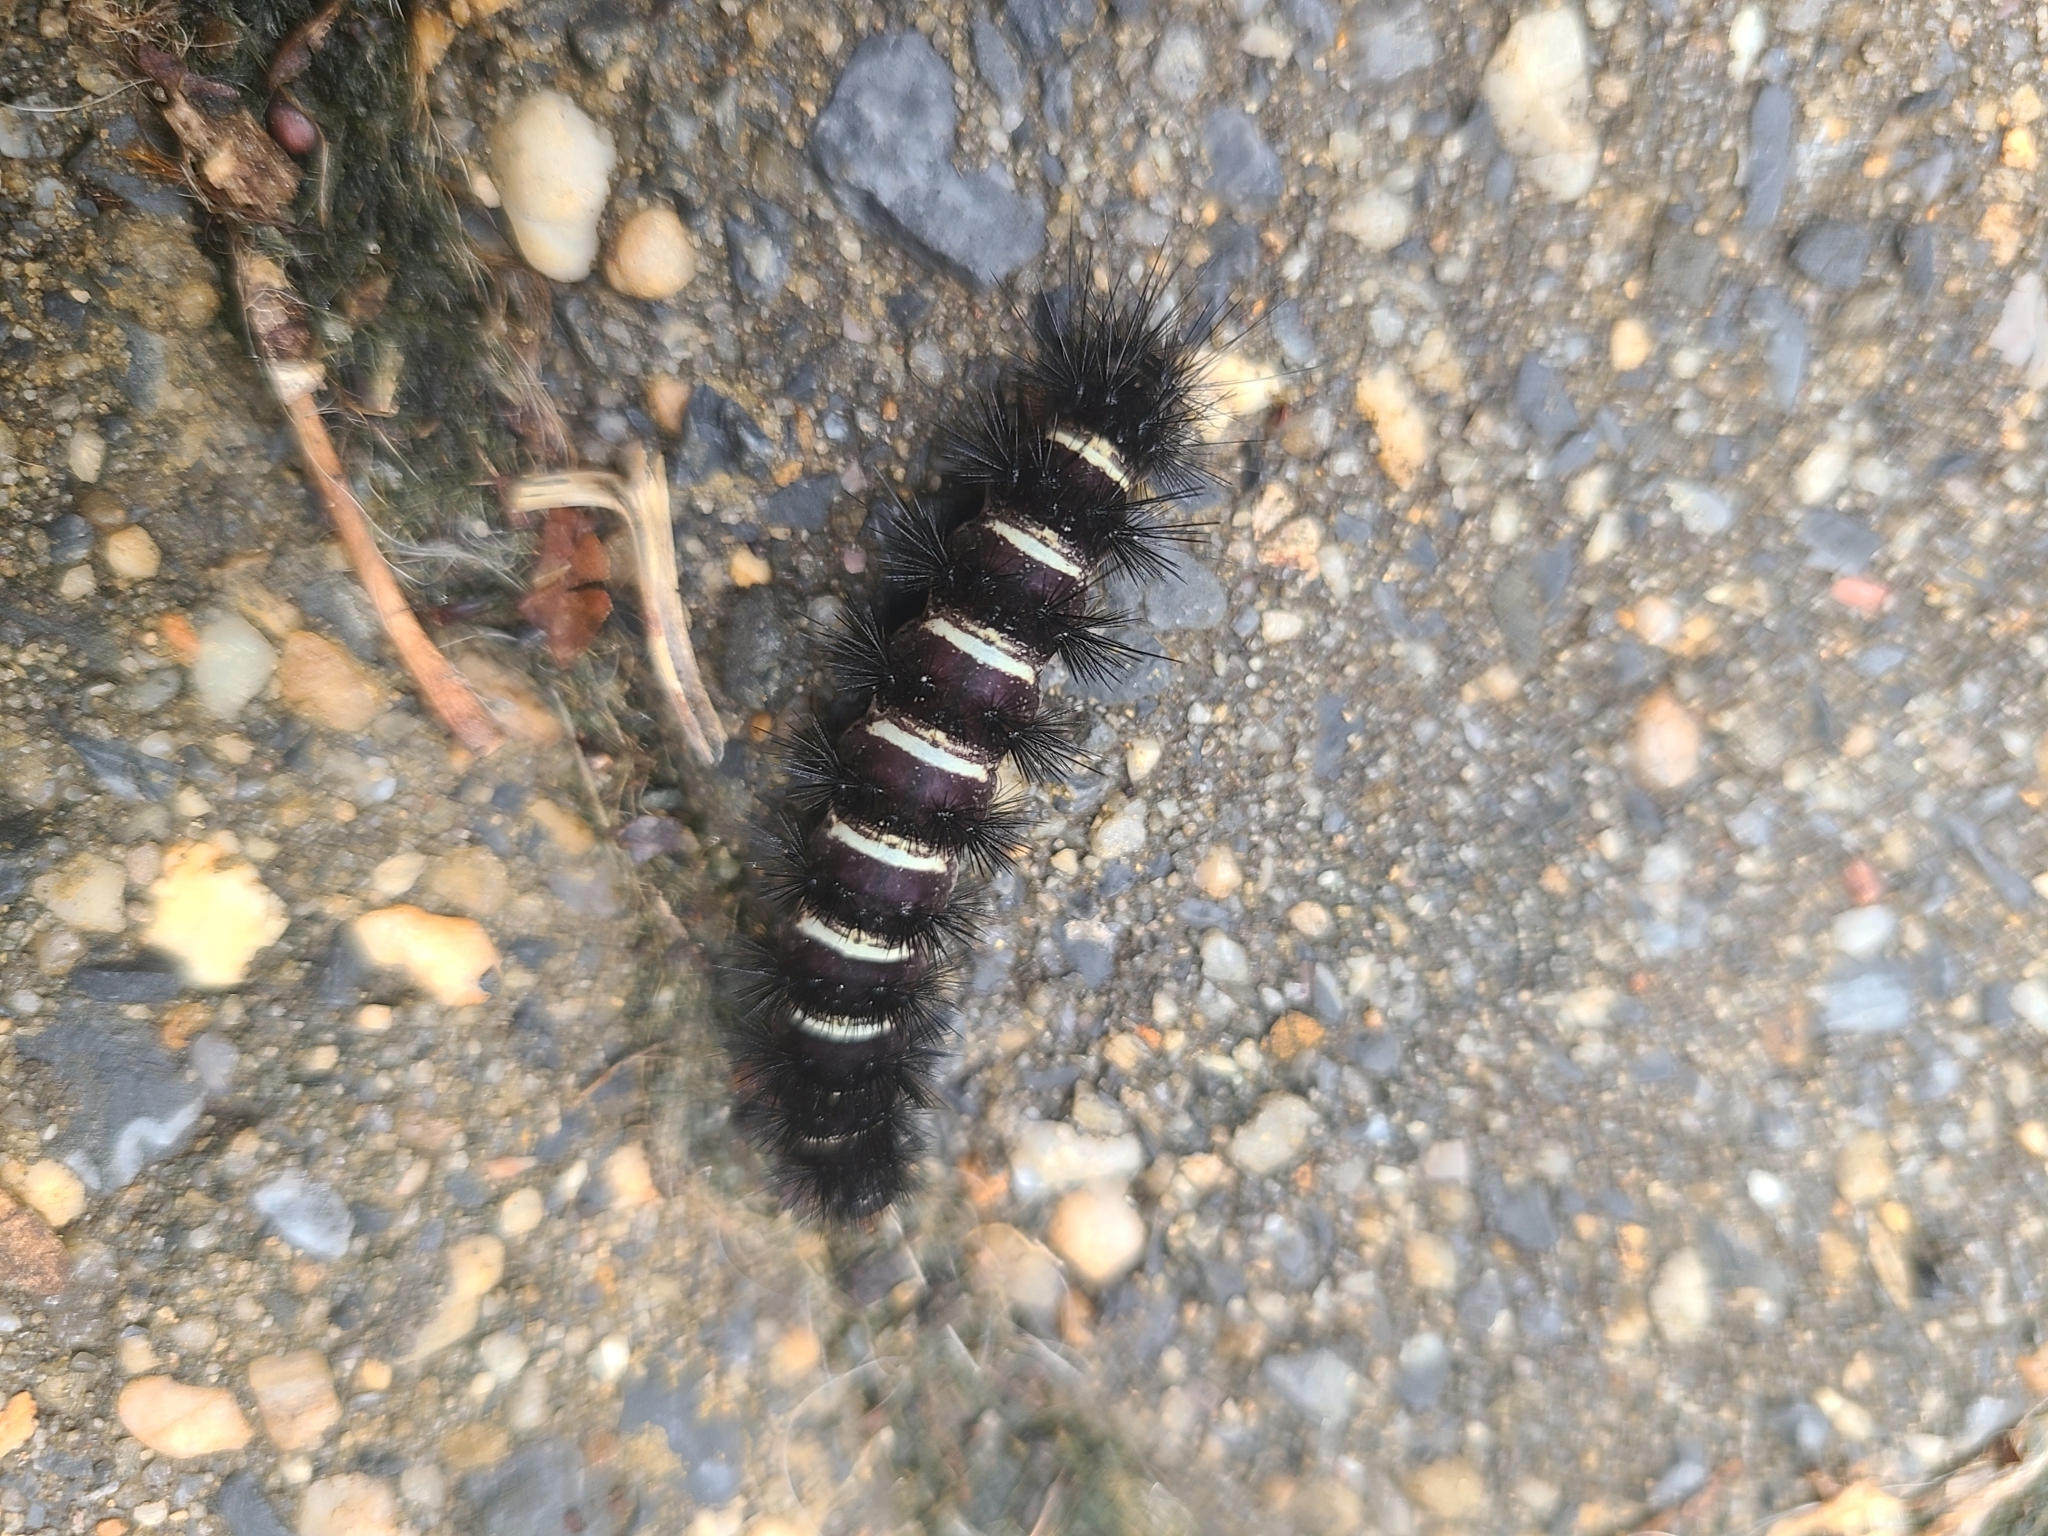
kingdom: Animalia
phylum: Arthropoda
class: Insecta
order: Lepidoptera
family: Erebidae
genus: Spilosoma
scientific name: Spilosoma congrua
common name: Agreeable tiger moth
